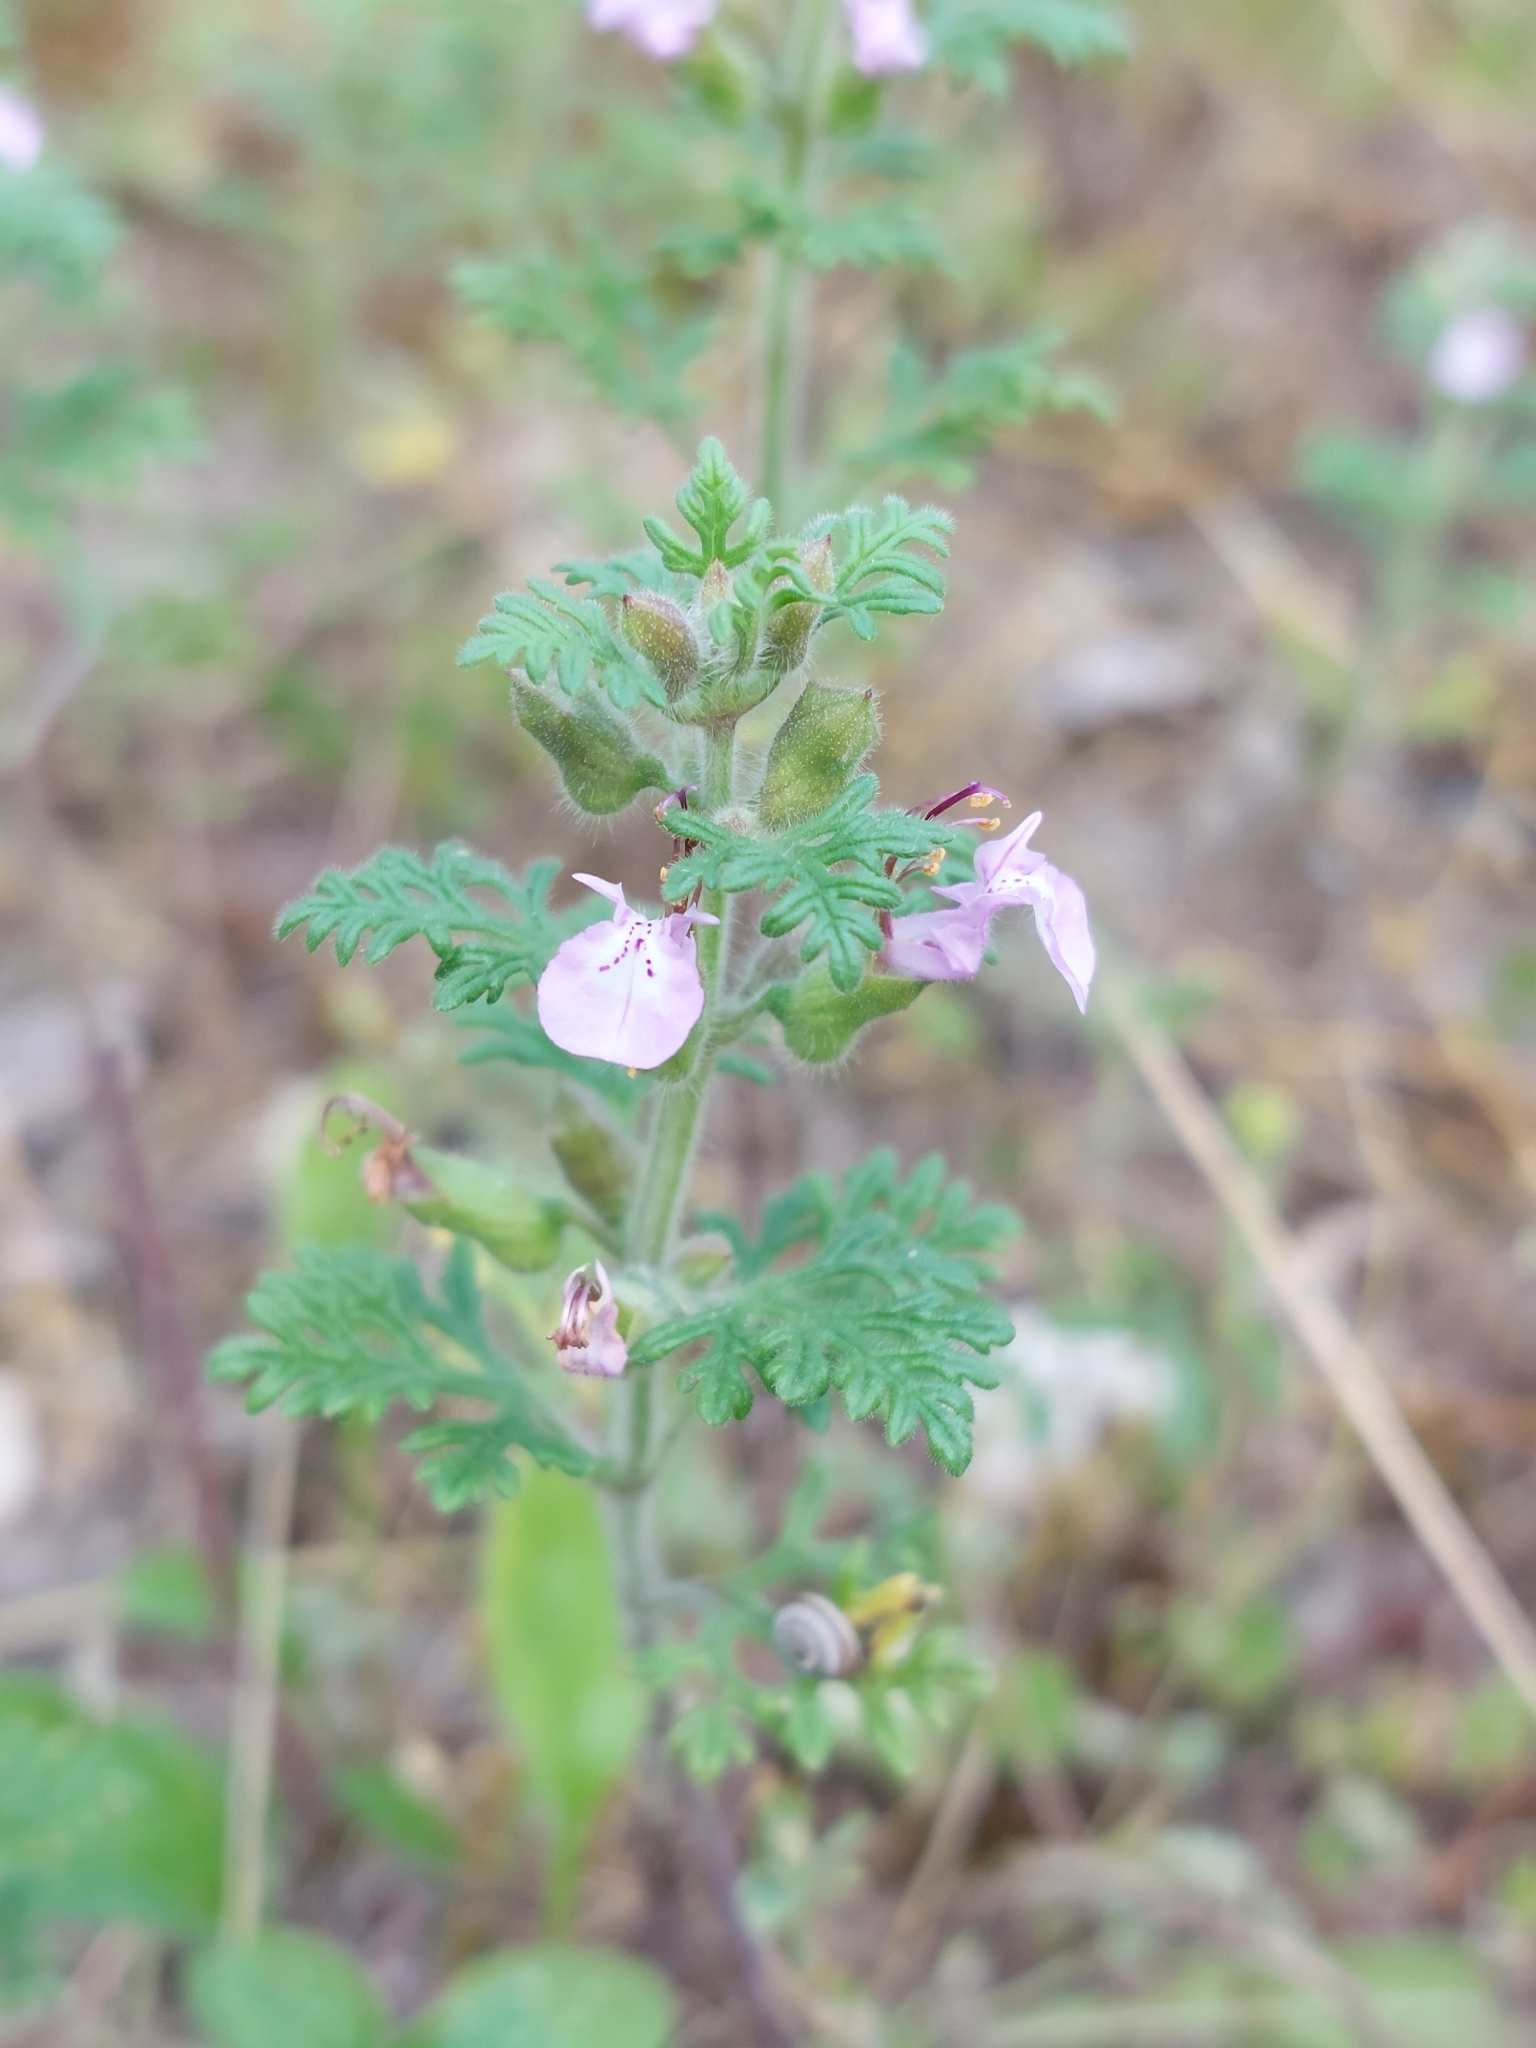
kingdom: Plantae
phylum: Tracheophyta
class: Magnoliopsida
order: Lamiales
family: Lamiaceae
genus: Teucrium
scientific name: Teucrium botrys
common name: Cut-leaved germander
